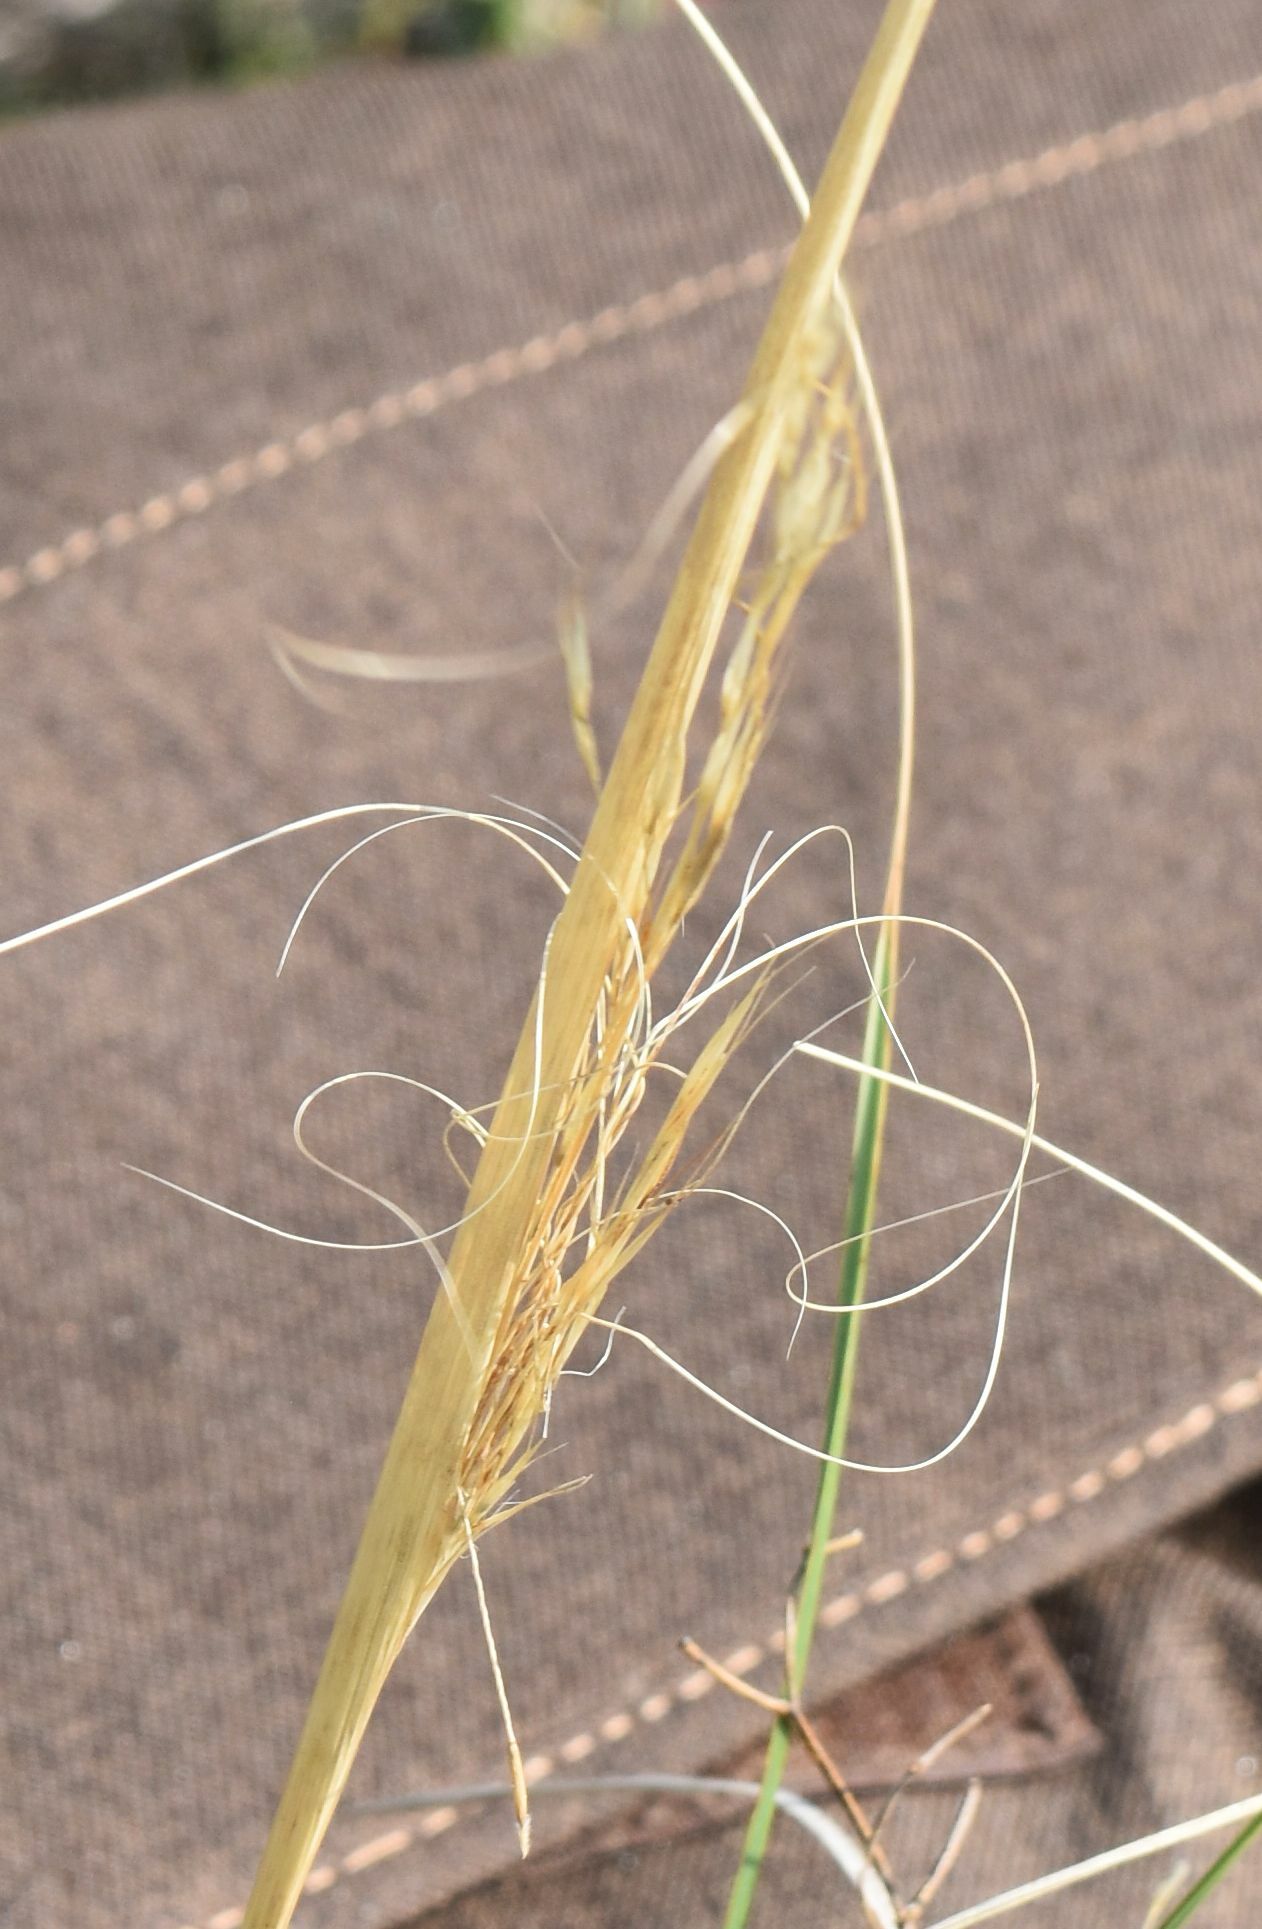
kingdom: Plantae
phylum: Tracheophyta
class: Liliopsida
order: Poales
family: Poaceae
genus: Hesperostipa
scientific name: Hesperostipa comata
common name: Needle-and-thread grass
